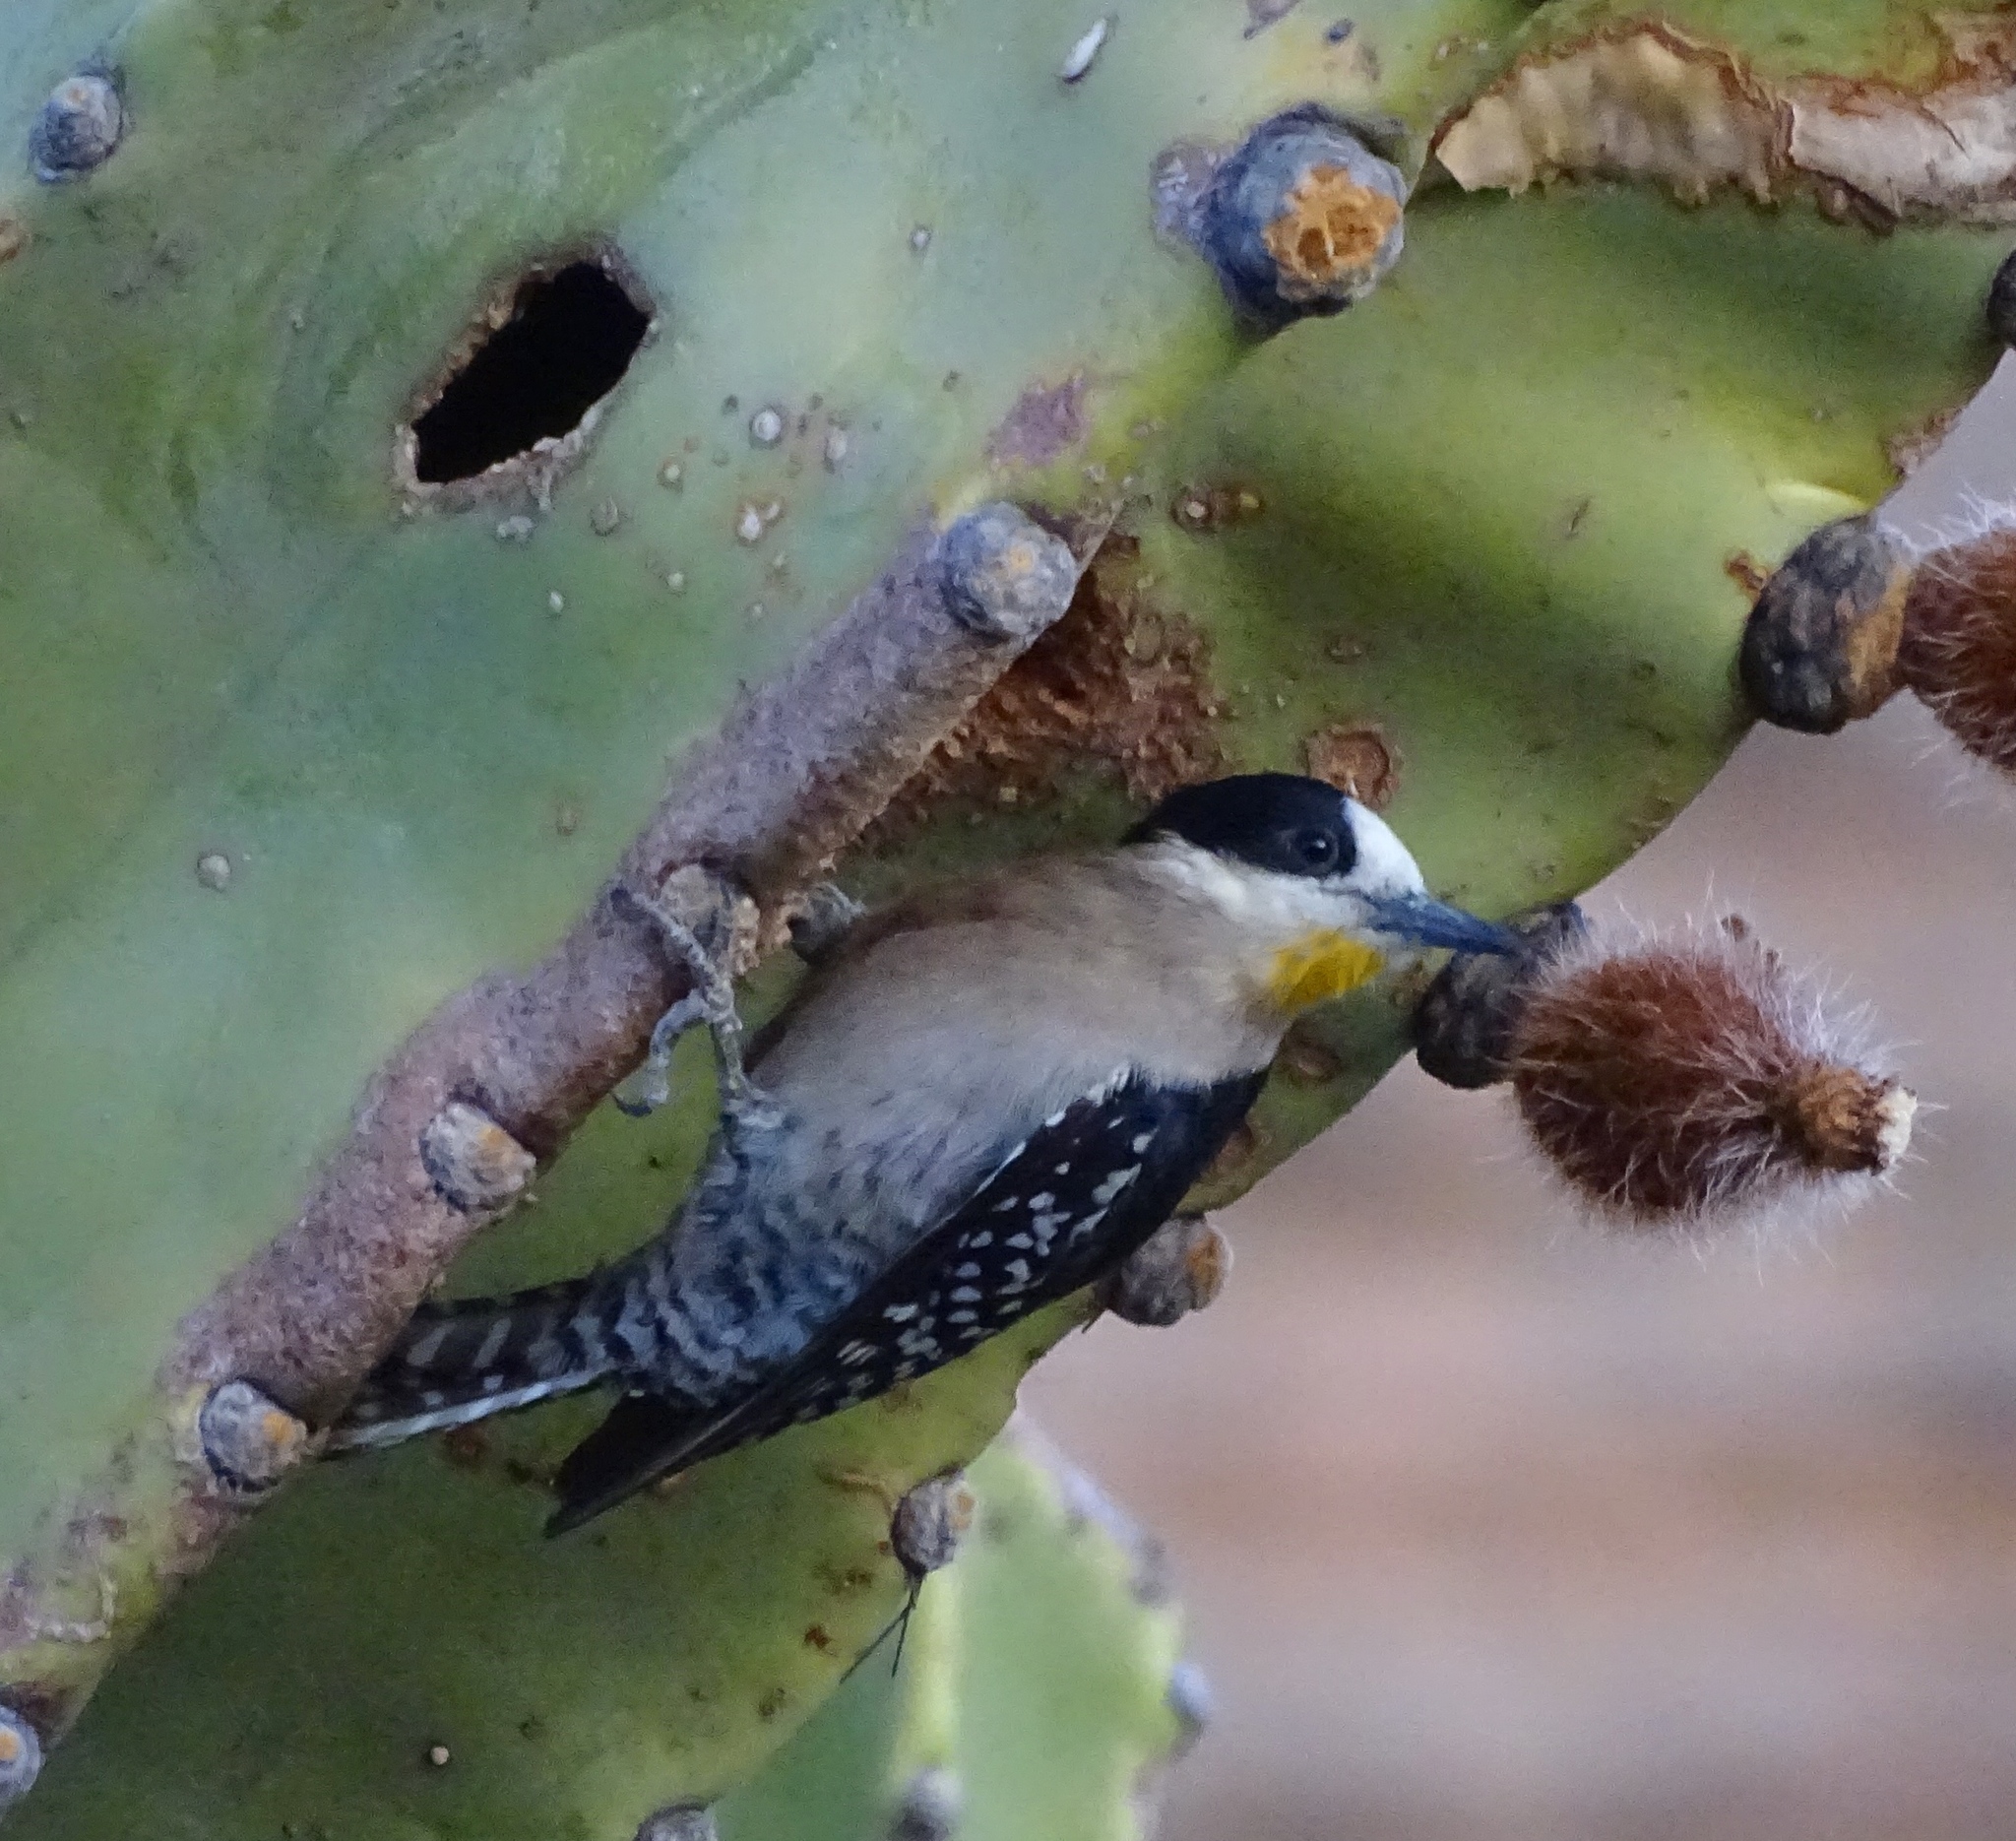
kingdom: Animalia
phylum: Chordata
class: Aves
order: Piciformes
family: Picidae
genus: Melanerpes
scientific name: Melanerpes cactorum
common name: White-fronted woodpecker
